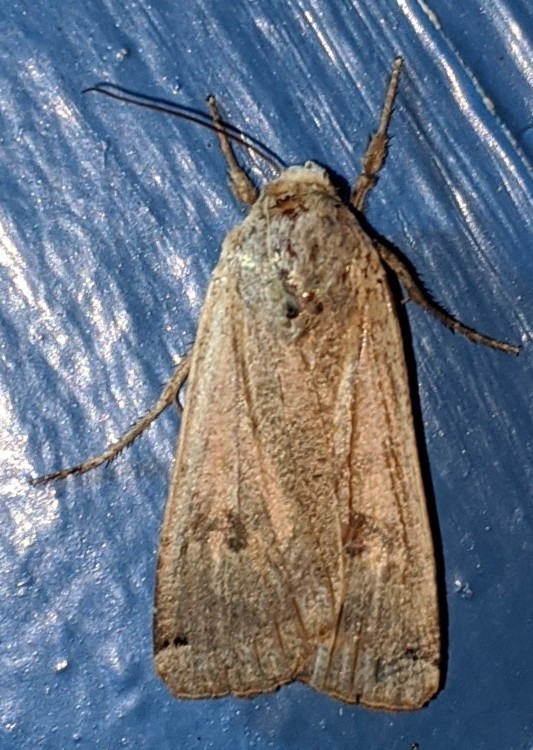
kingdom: Animalia
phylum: Arthropoda
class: Insecta
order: Lepidoptera
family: Noctuidae
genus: Noctua
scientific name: Noctua pronuba
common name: Large yellow underwing
